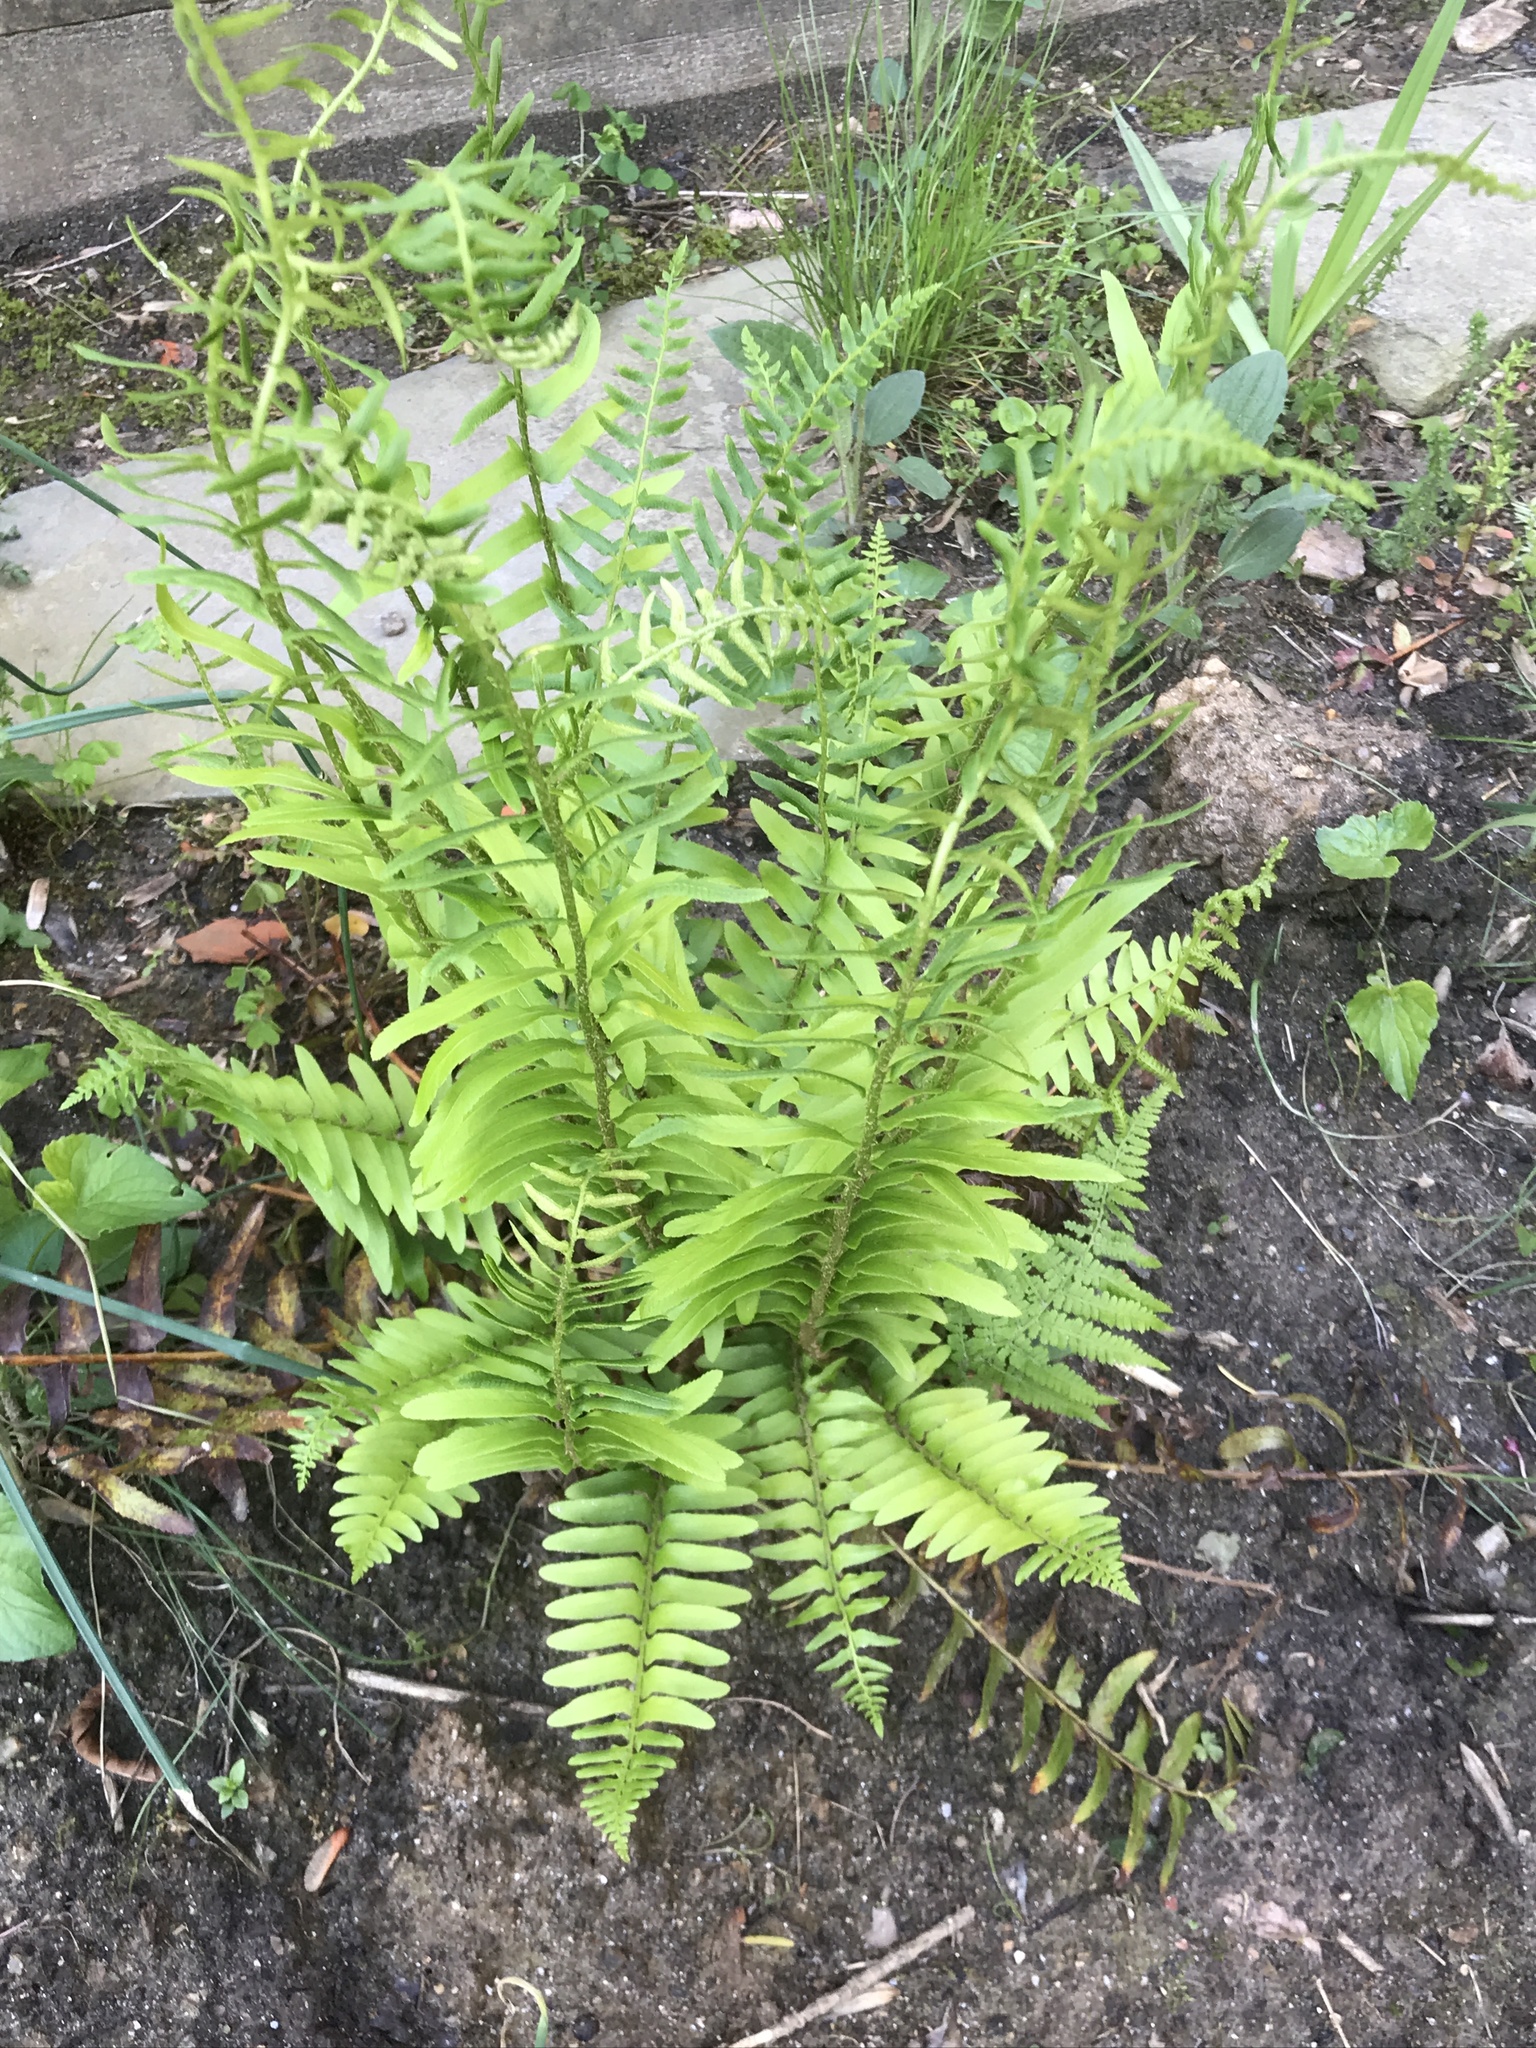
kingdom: Plantae
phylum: Tracheophyta
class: Polypodiopsida
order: Polypodiales
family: Dryopteridaceae
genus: Polystichum
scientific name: Polystichum acrostichoides
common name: Christmas fern
